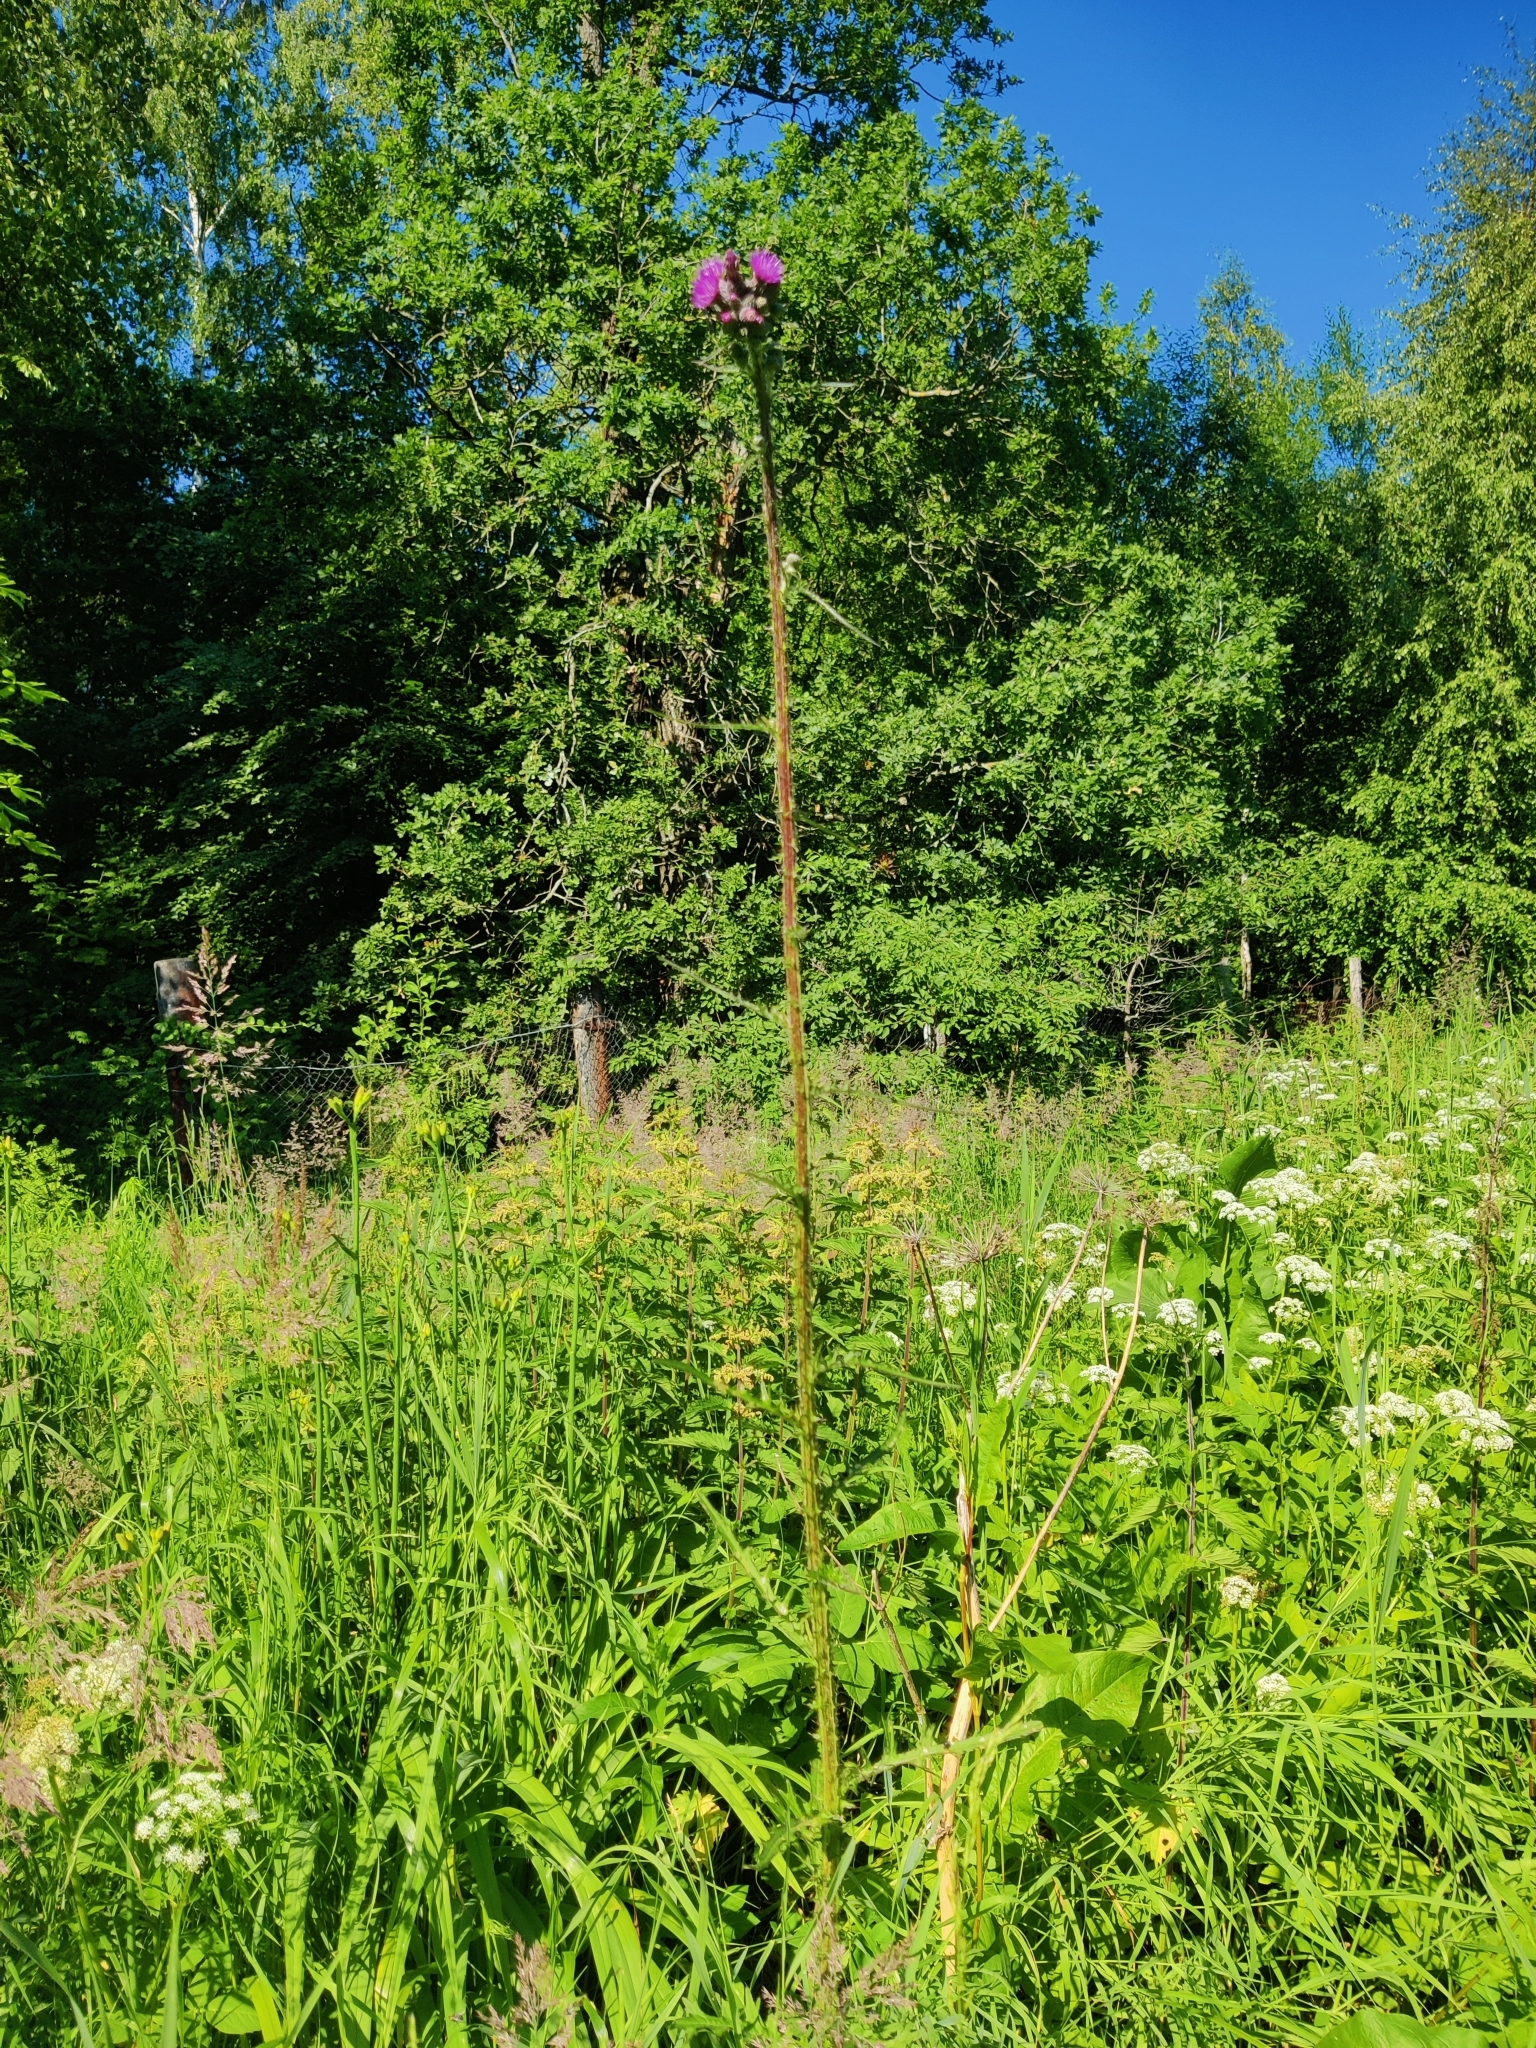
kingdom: Plantae
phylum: Tracheophyta
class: Magnoliopsida
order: Asterales
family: Asteraceae
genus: Cirsium
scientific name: Cirsium palustre
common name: Marsh thistle
